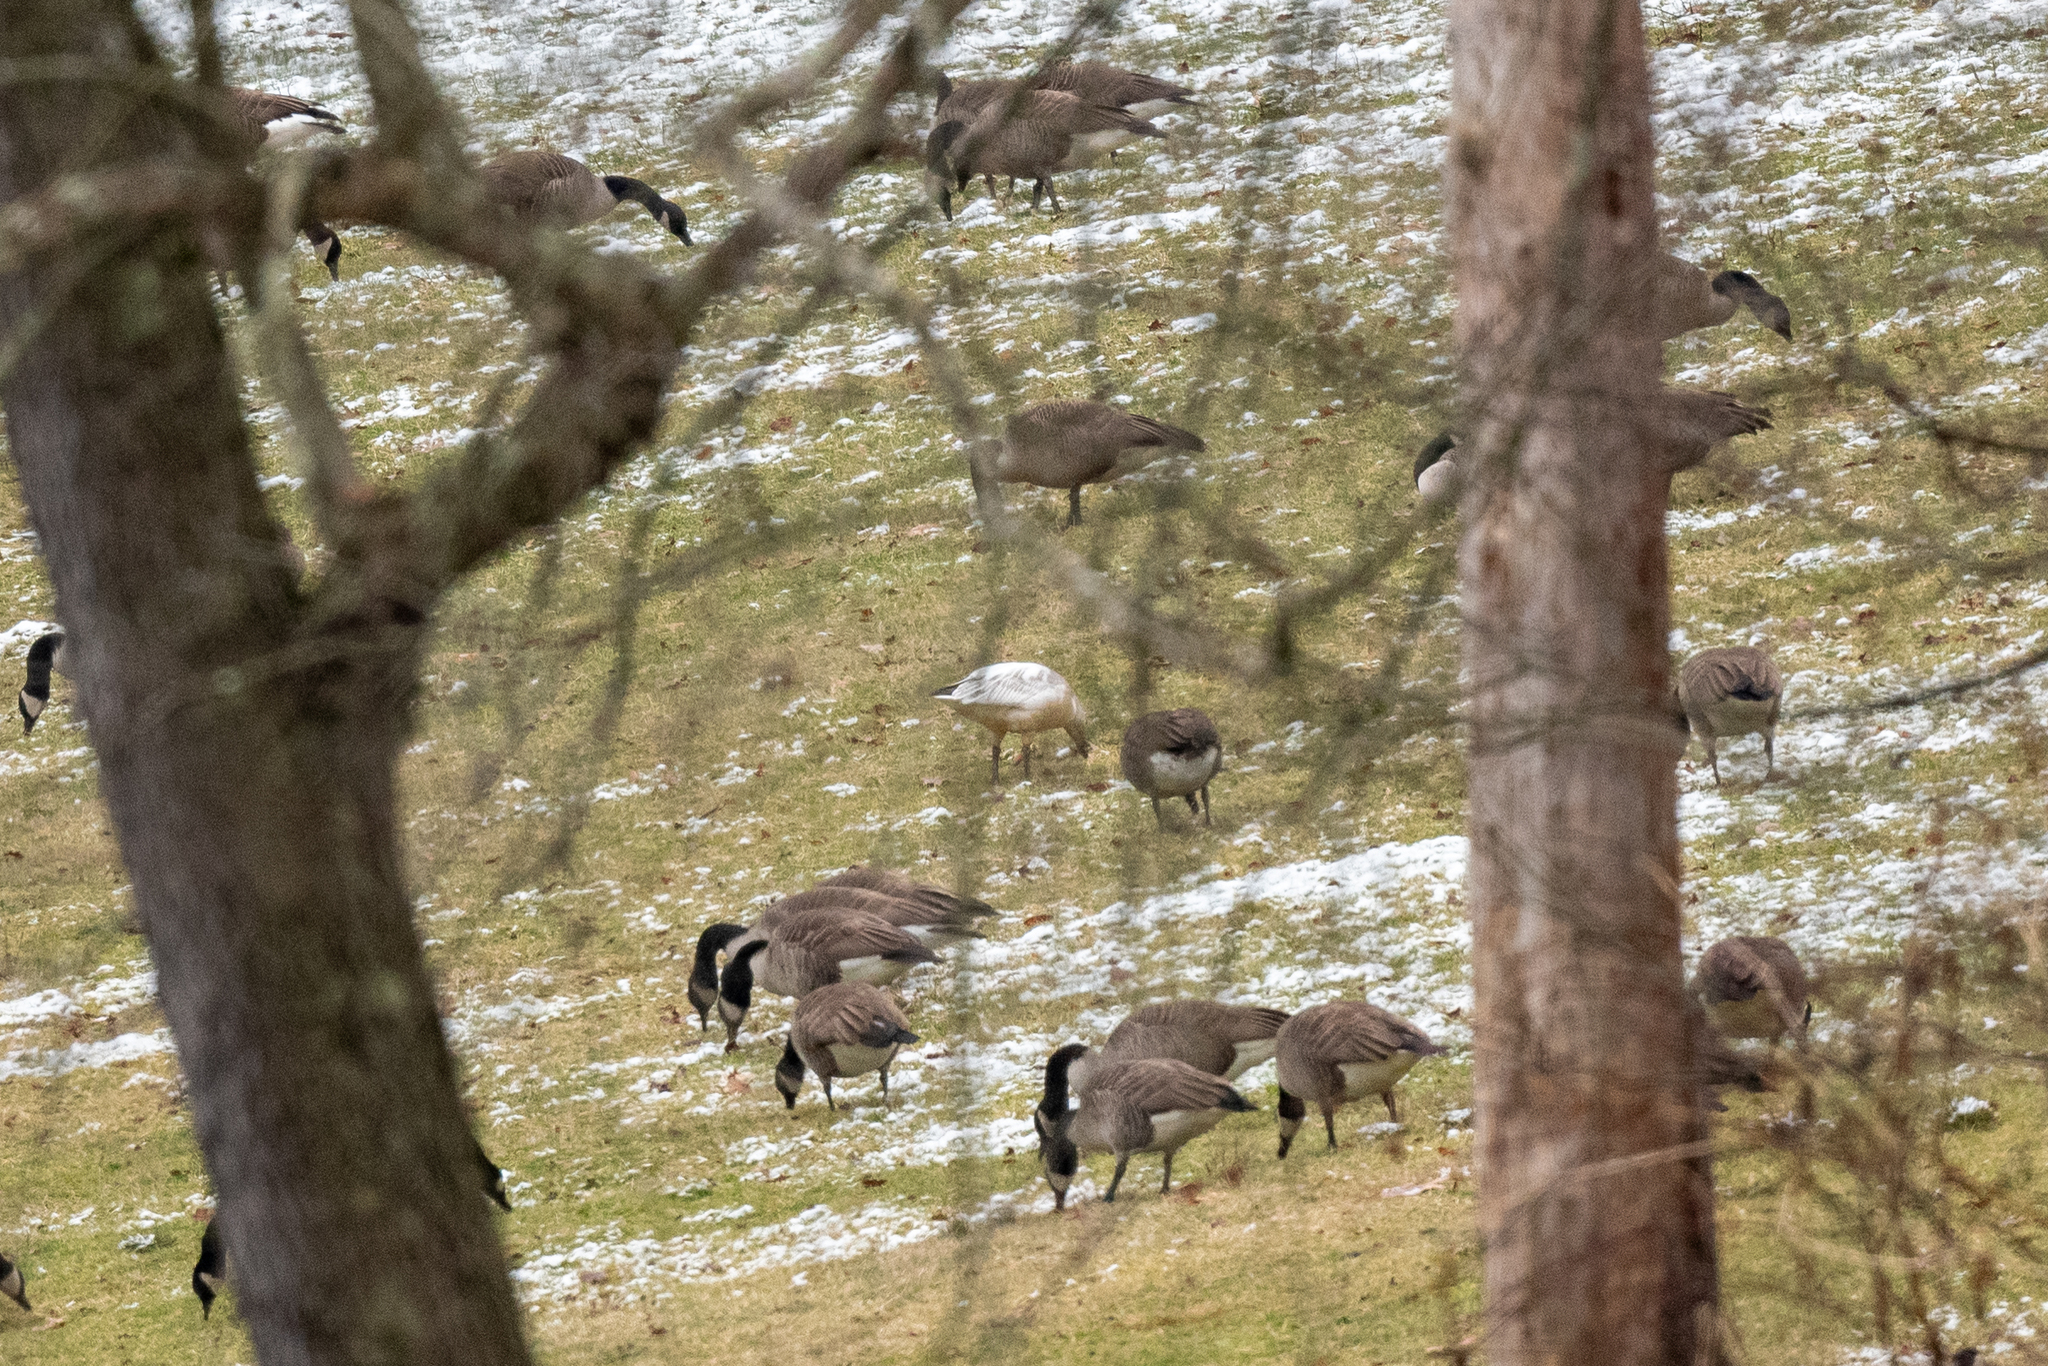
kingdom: Animalia
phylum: Chordata
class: Aves
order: Anseriformes
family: Anatidae
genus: Anser
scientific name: Anser caerulescens
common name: Snow goose
